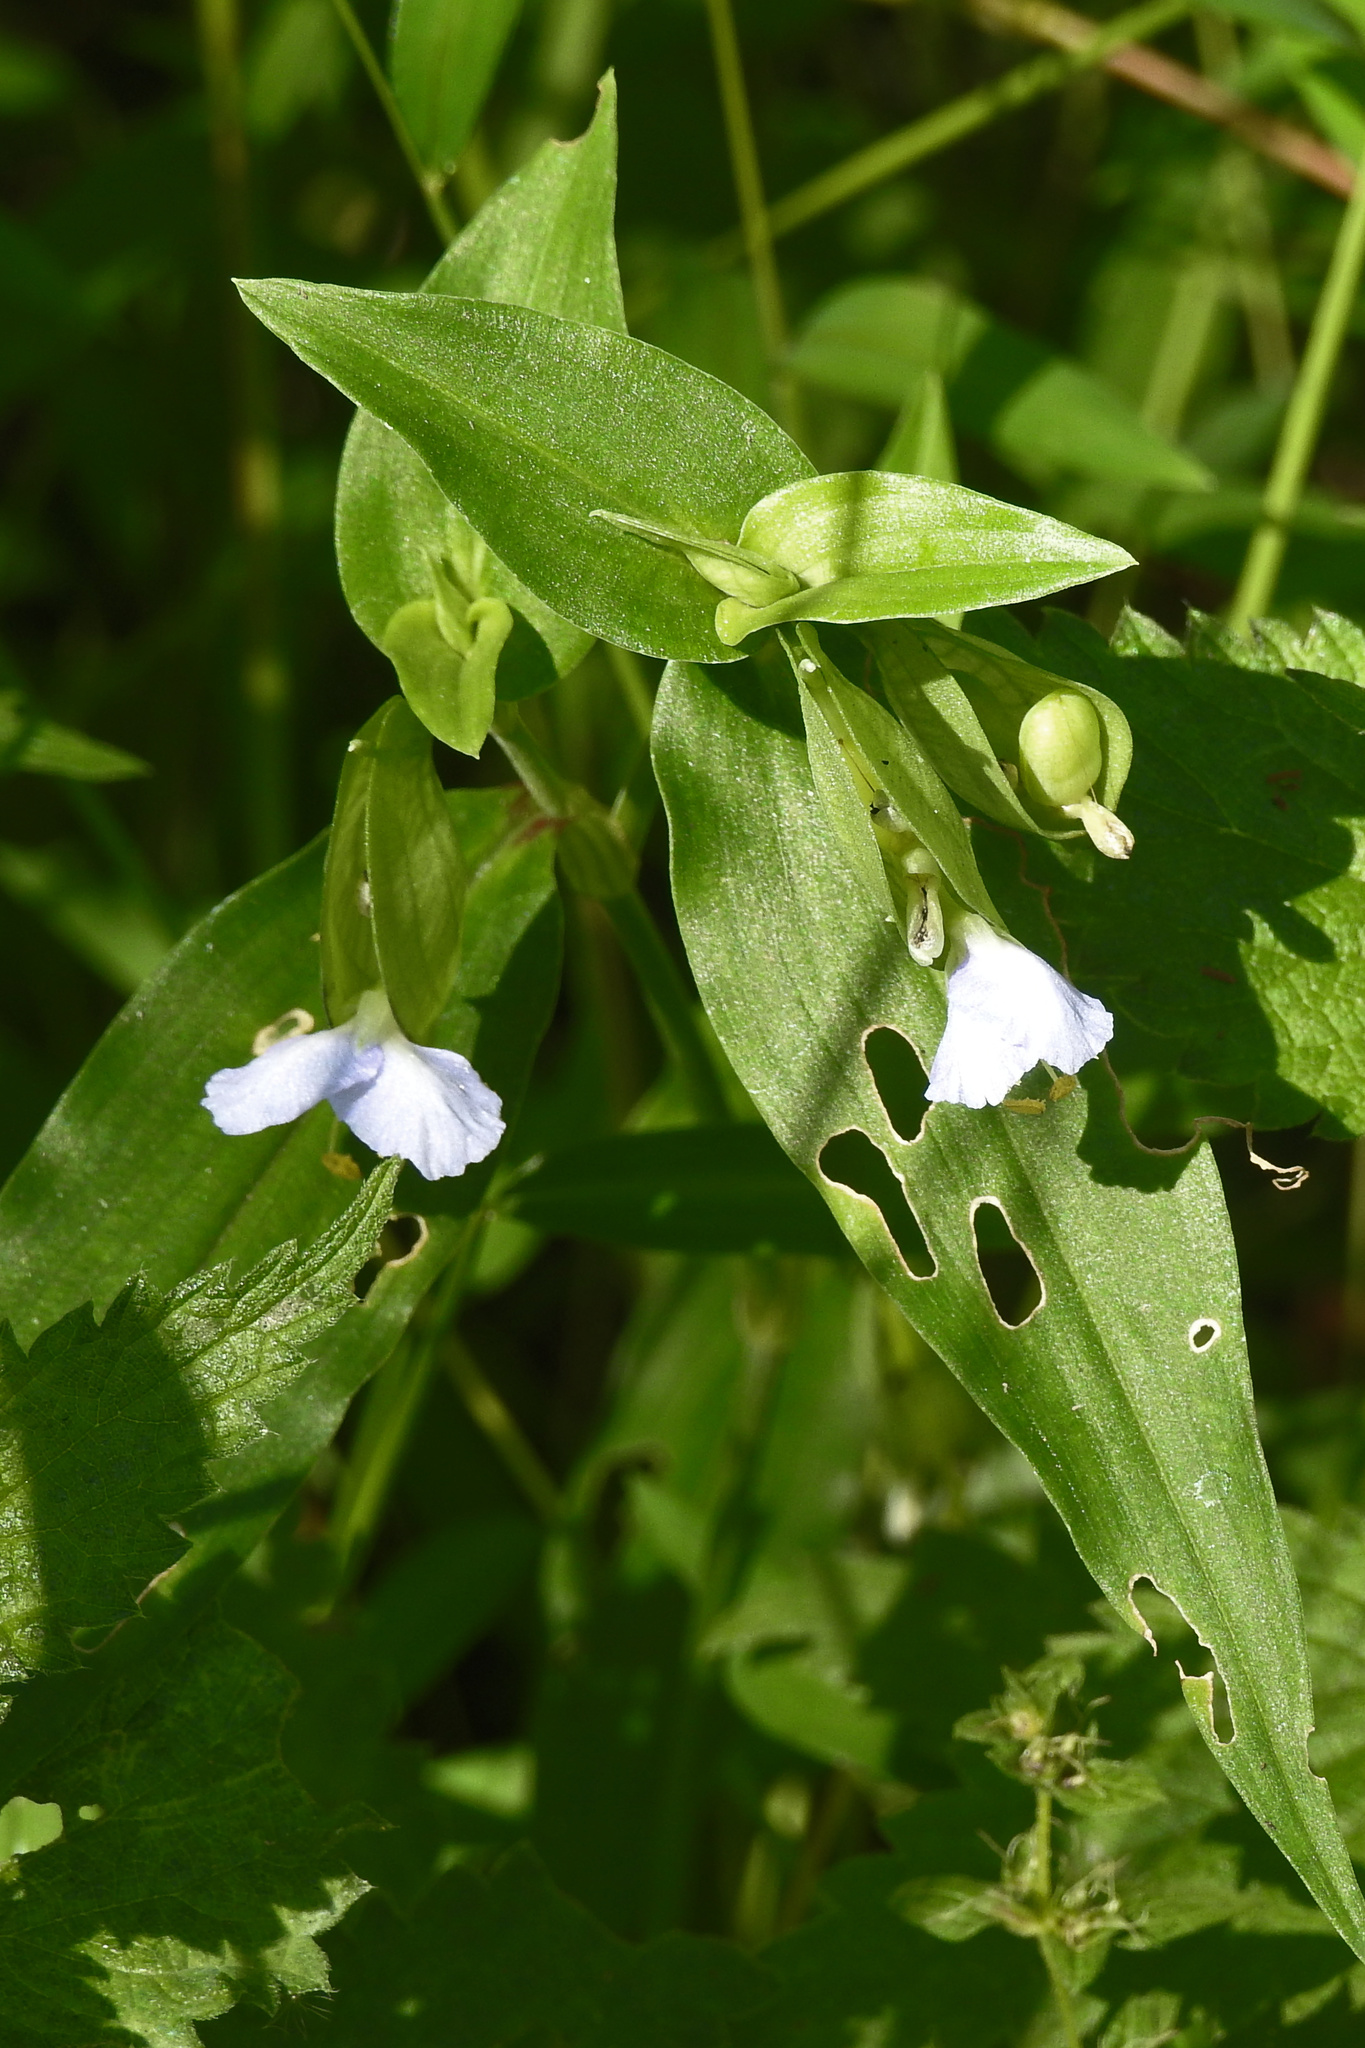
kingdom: Plantae
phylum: Tracheophyta
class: Liliopsida
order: Commelinales
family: Commelinaceae
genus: Commelina
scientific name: Commelina communis
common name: Asiatic dayflower
